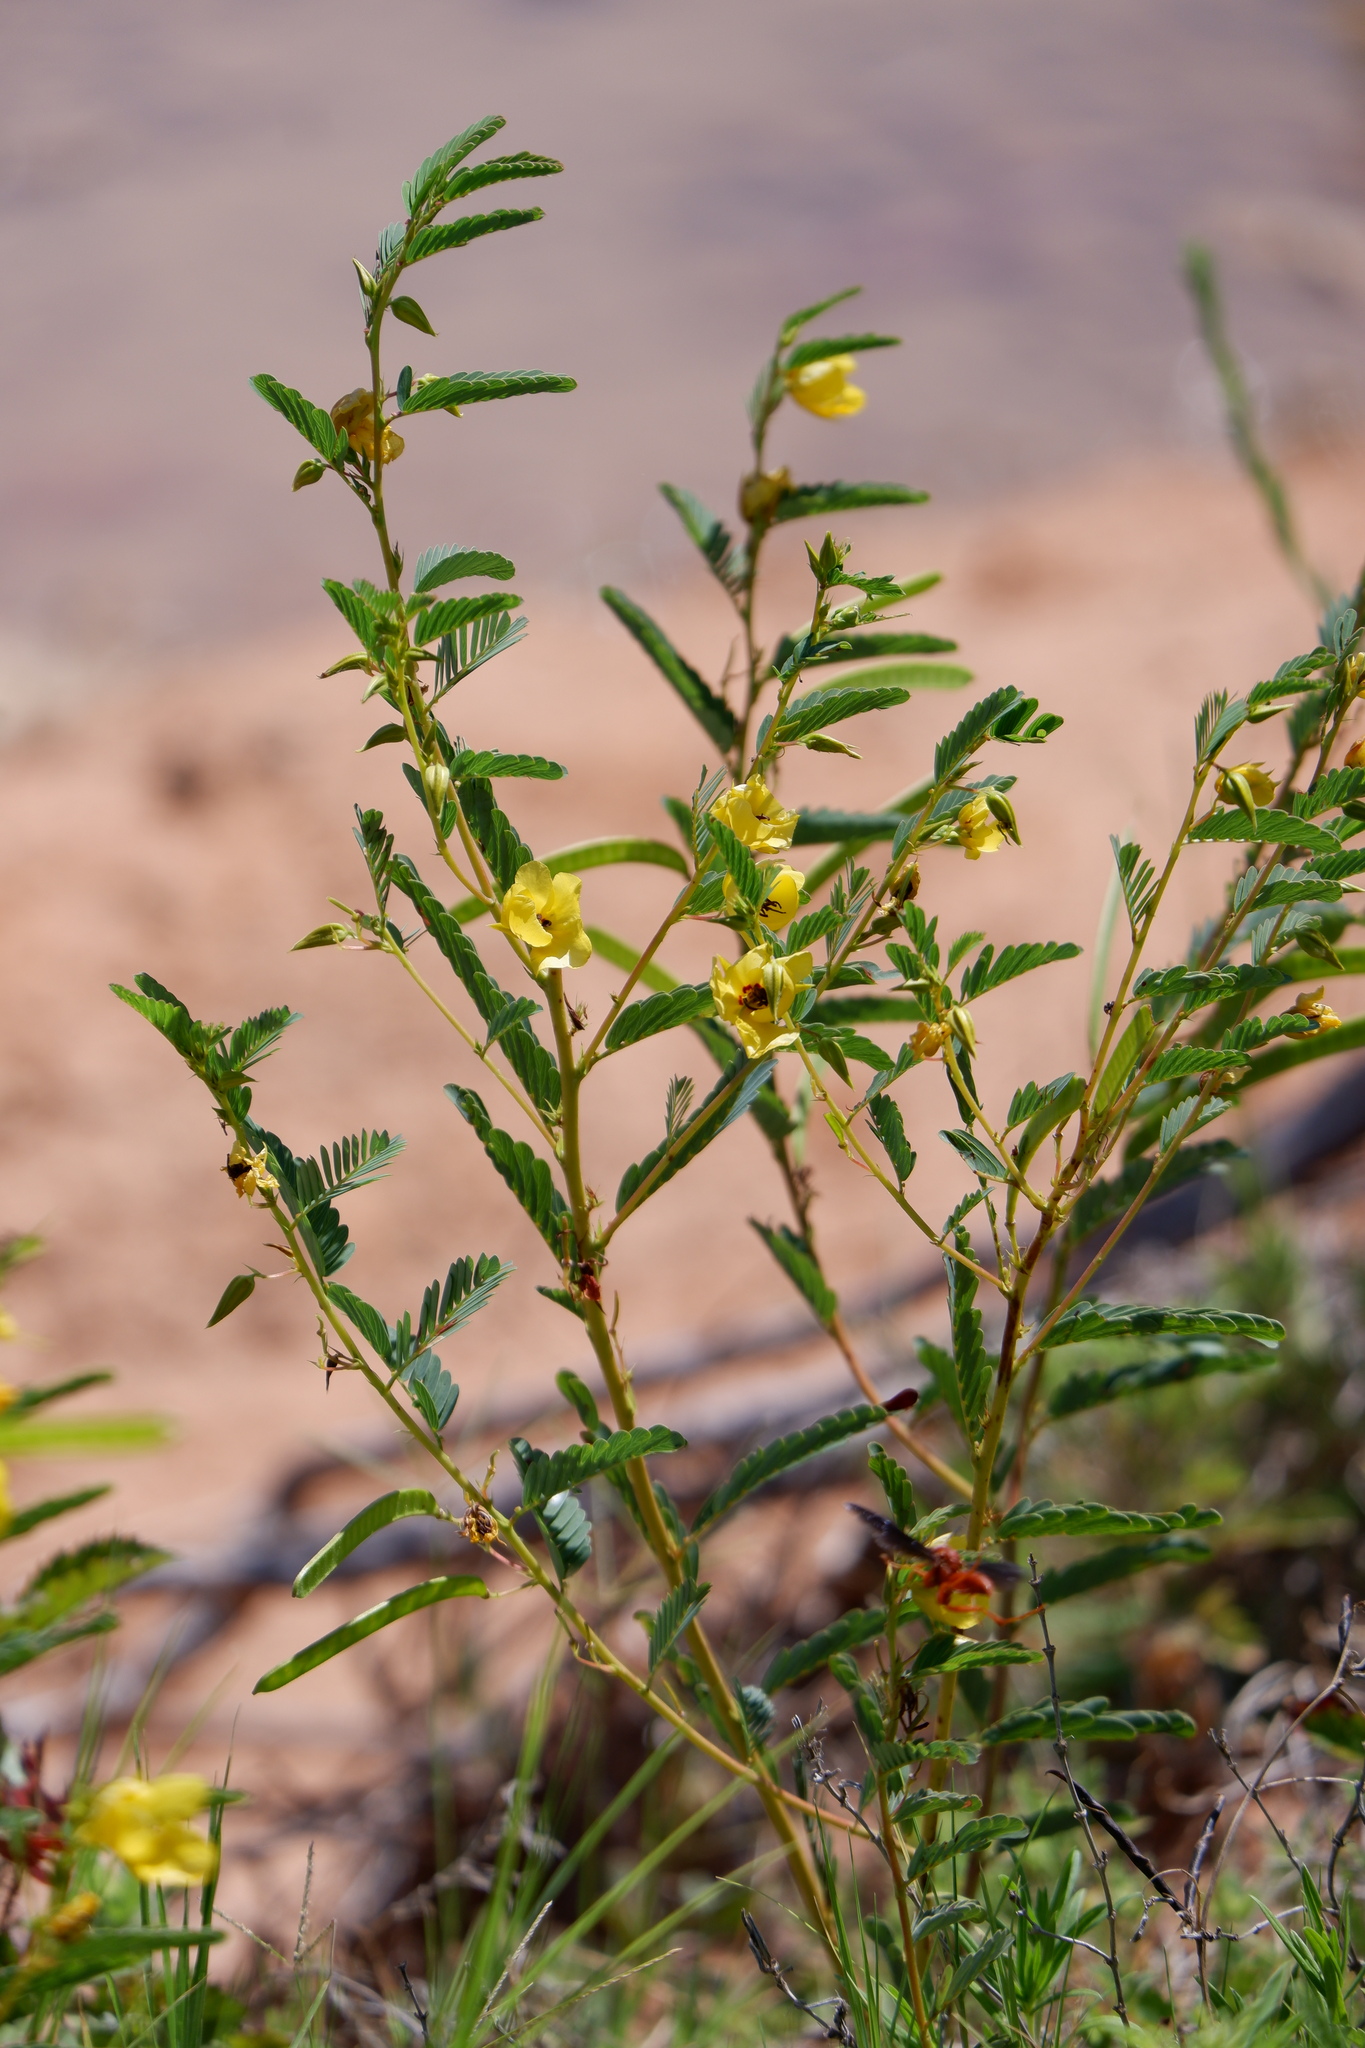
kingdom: Plantae
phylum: Tracheophyta
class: Magnoliopsida
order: Fabales
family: Fabaceae
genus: Chamaecrista
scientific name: Chamaecrista fasciculata
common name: Golden cassia
